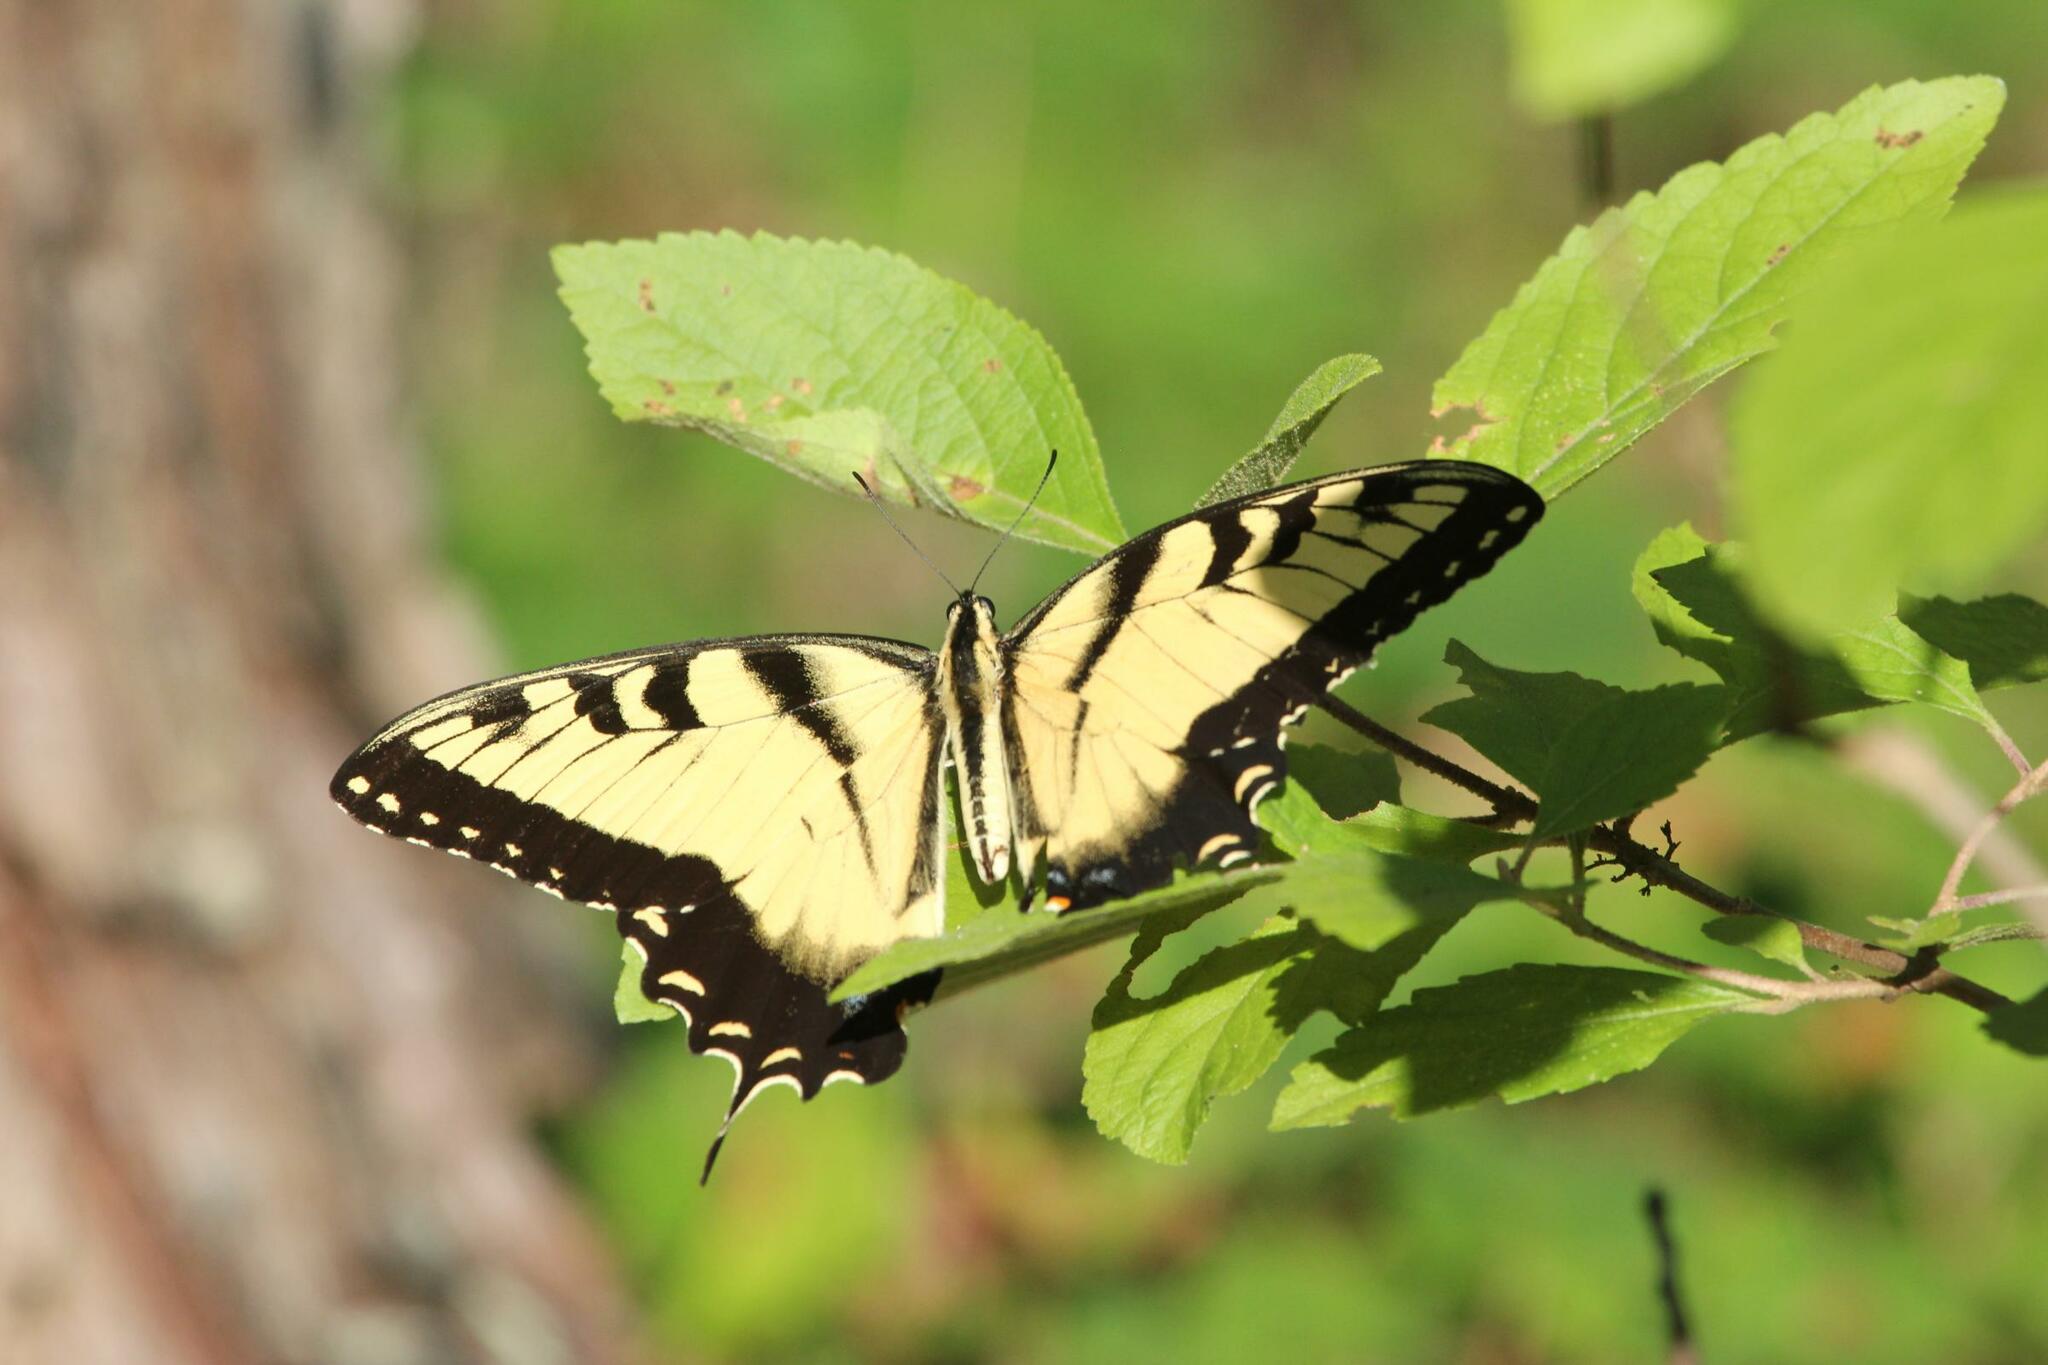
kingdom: Animalia
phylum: Arthropoda
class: Insecta
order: Lepidoptera
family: Papilionidae
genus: Papilio
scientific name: Papilio glaucus
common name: Tiger swallowtail
